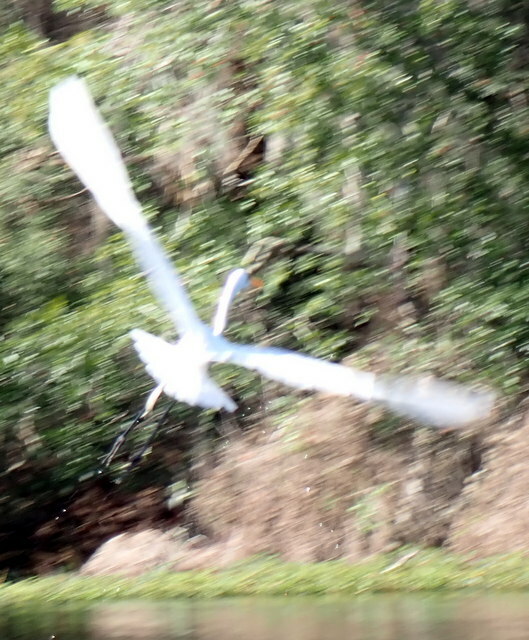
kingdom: Animalia
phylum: Chordata
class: Aves
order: Pelecaniformes
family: Ardeidae
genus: Ardea
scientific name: Ardea alba
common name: Great egret
